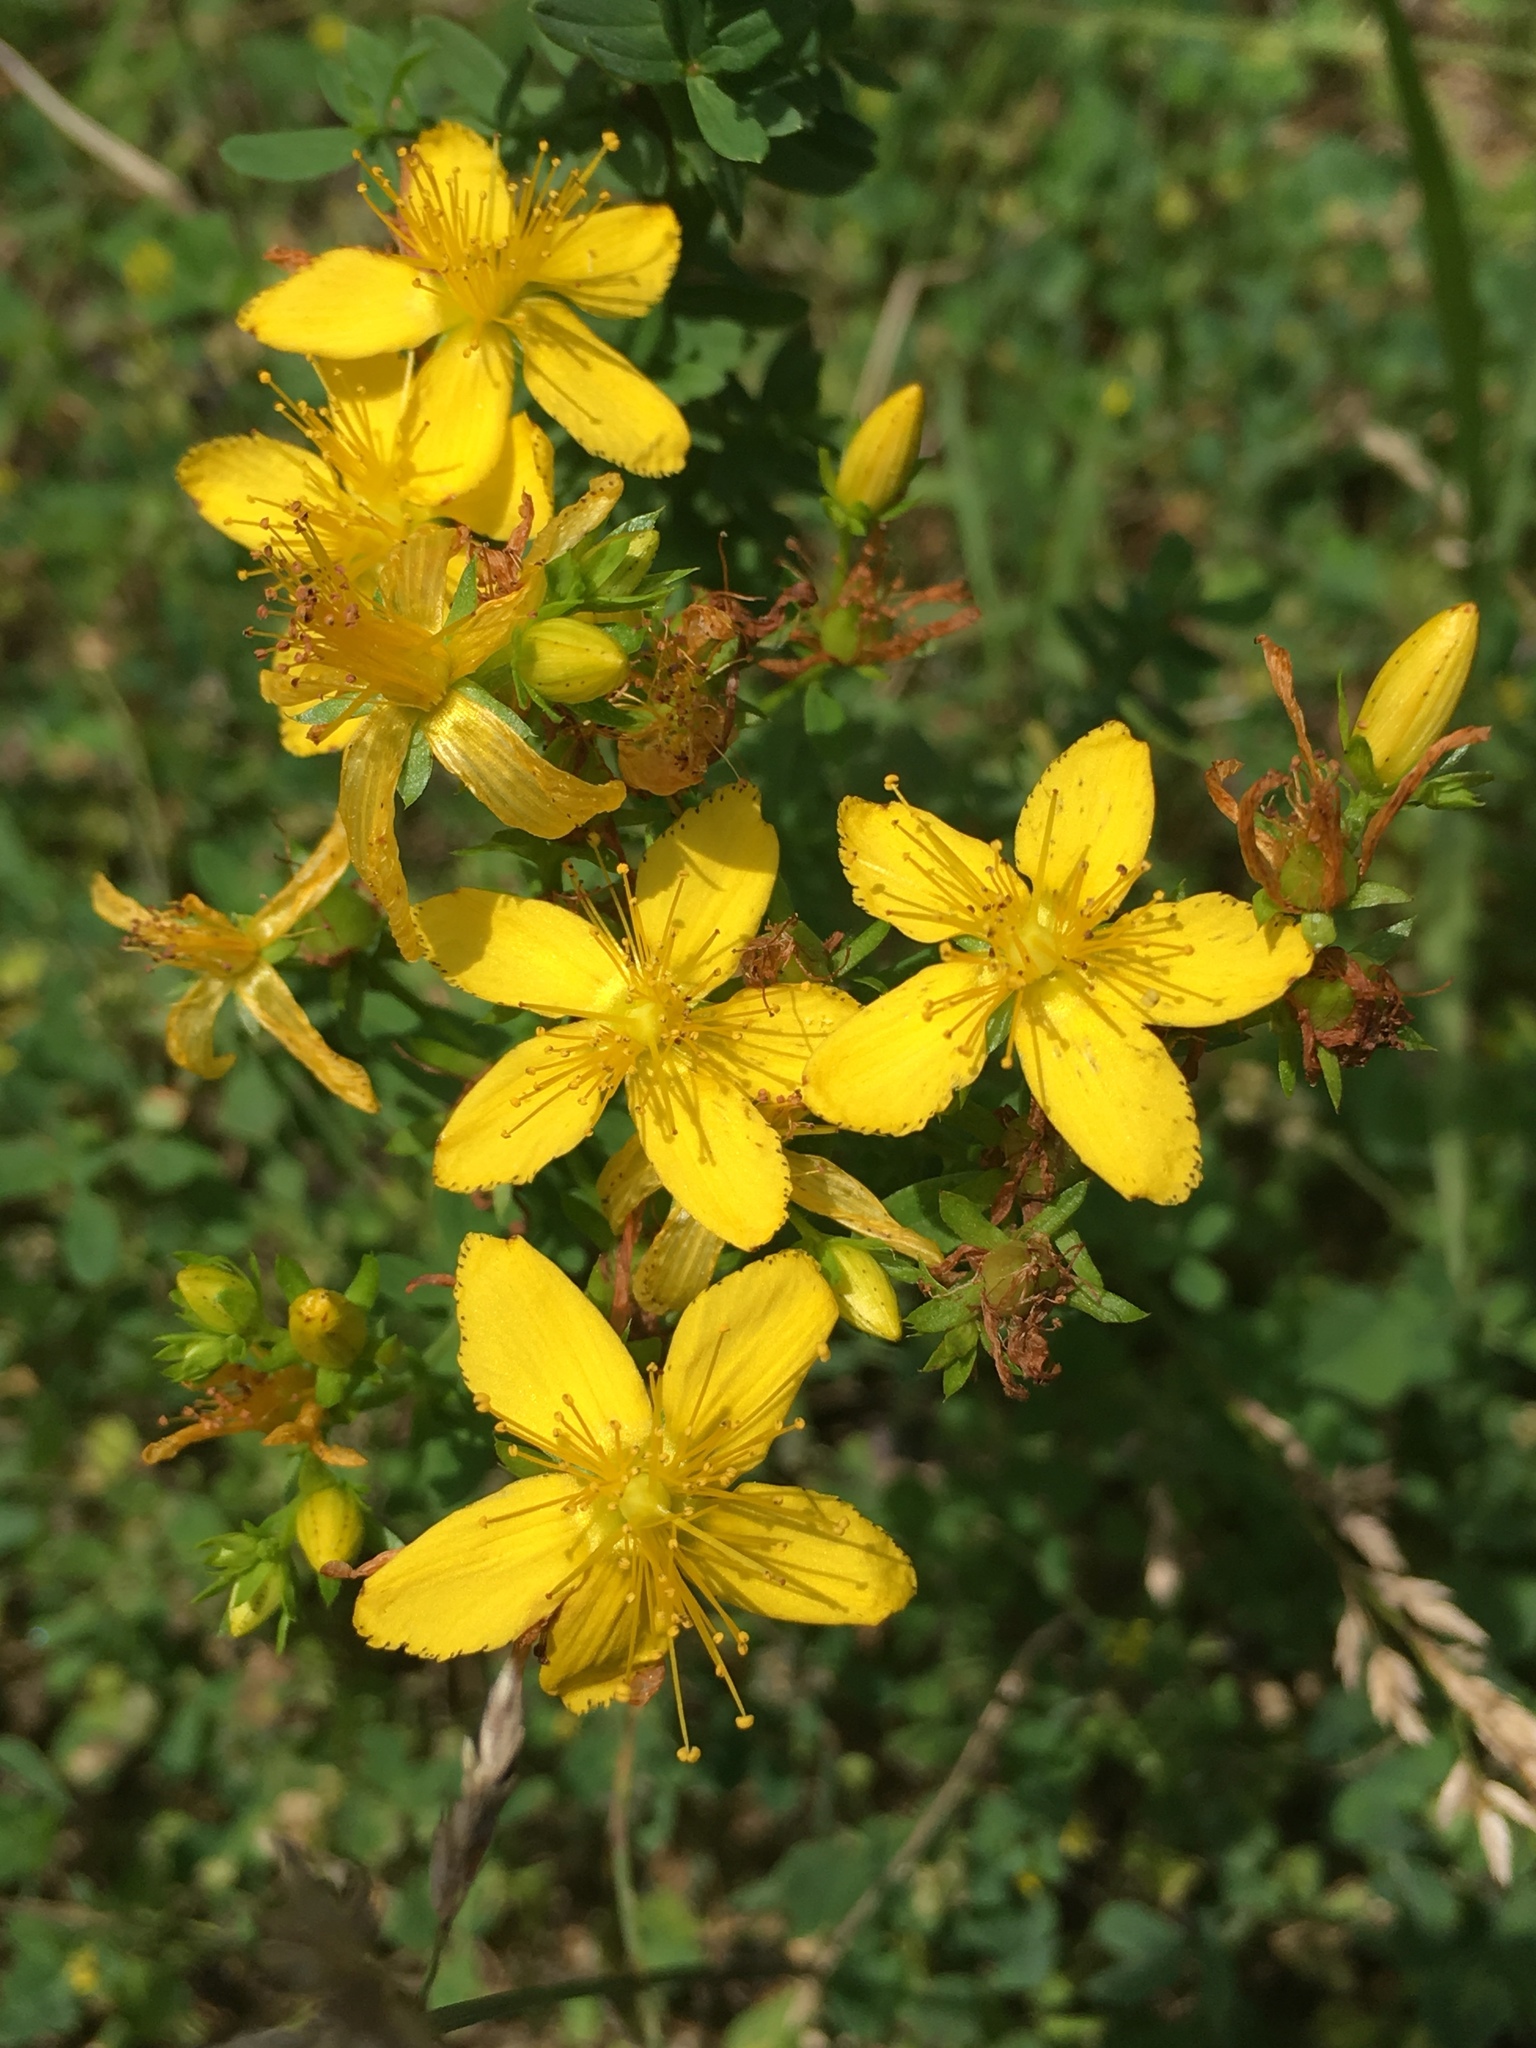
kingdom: Plantae
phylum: Tracheophyta
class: Magnoliopsida
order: Malpighiales
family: Hypericaceae
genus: Hypericum
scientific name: Hypericum perforatum
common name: Common st. johnswort
